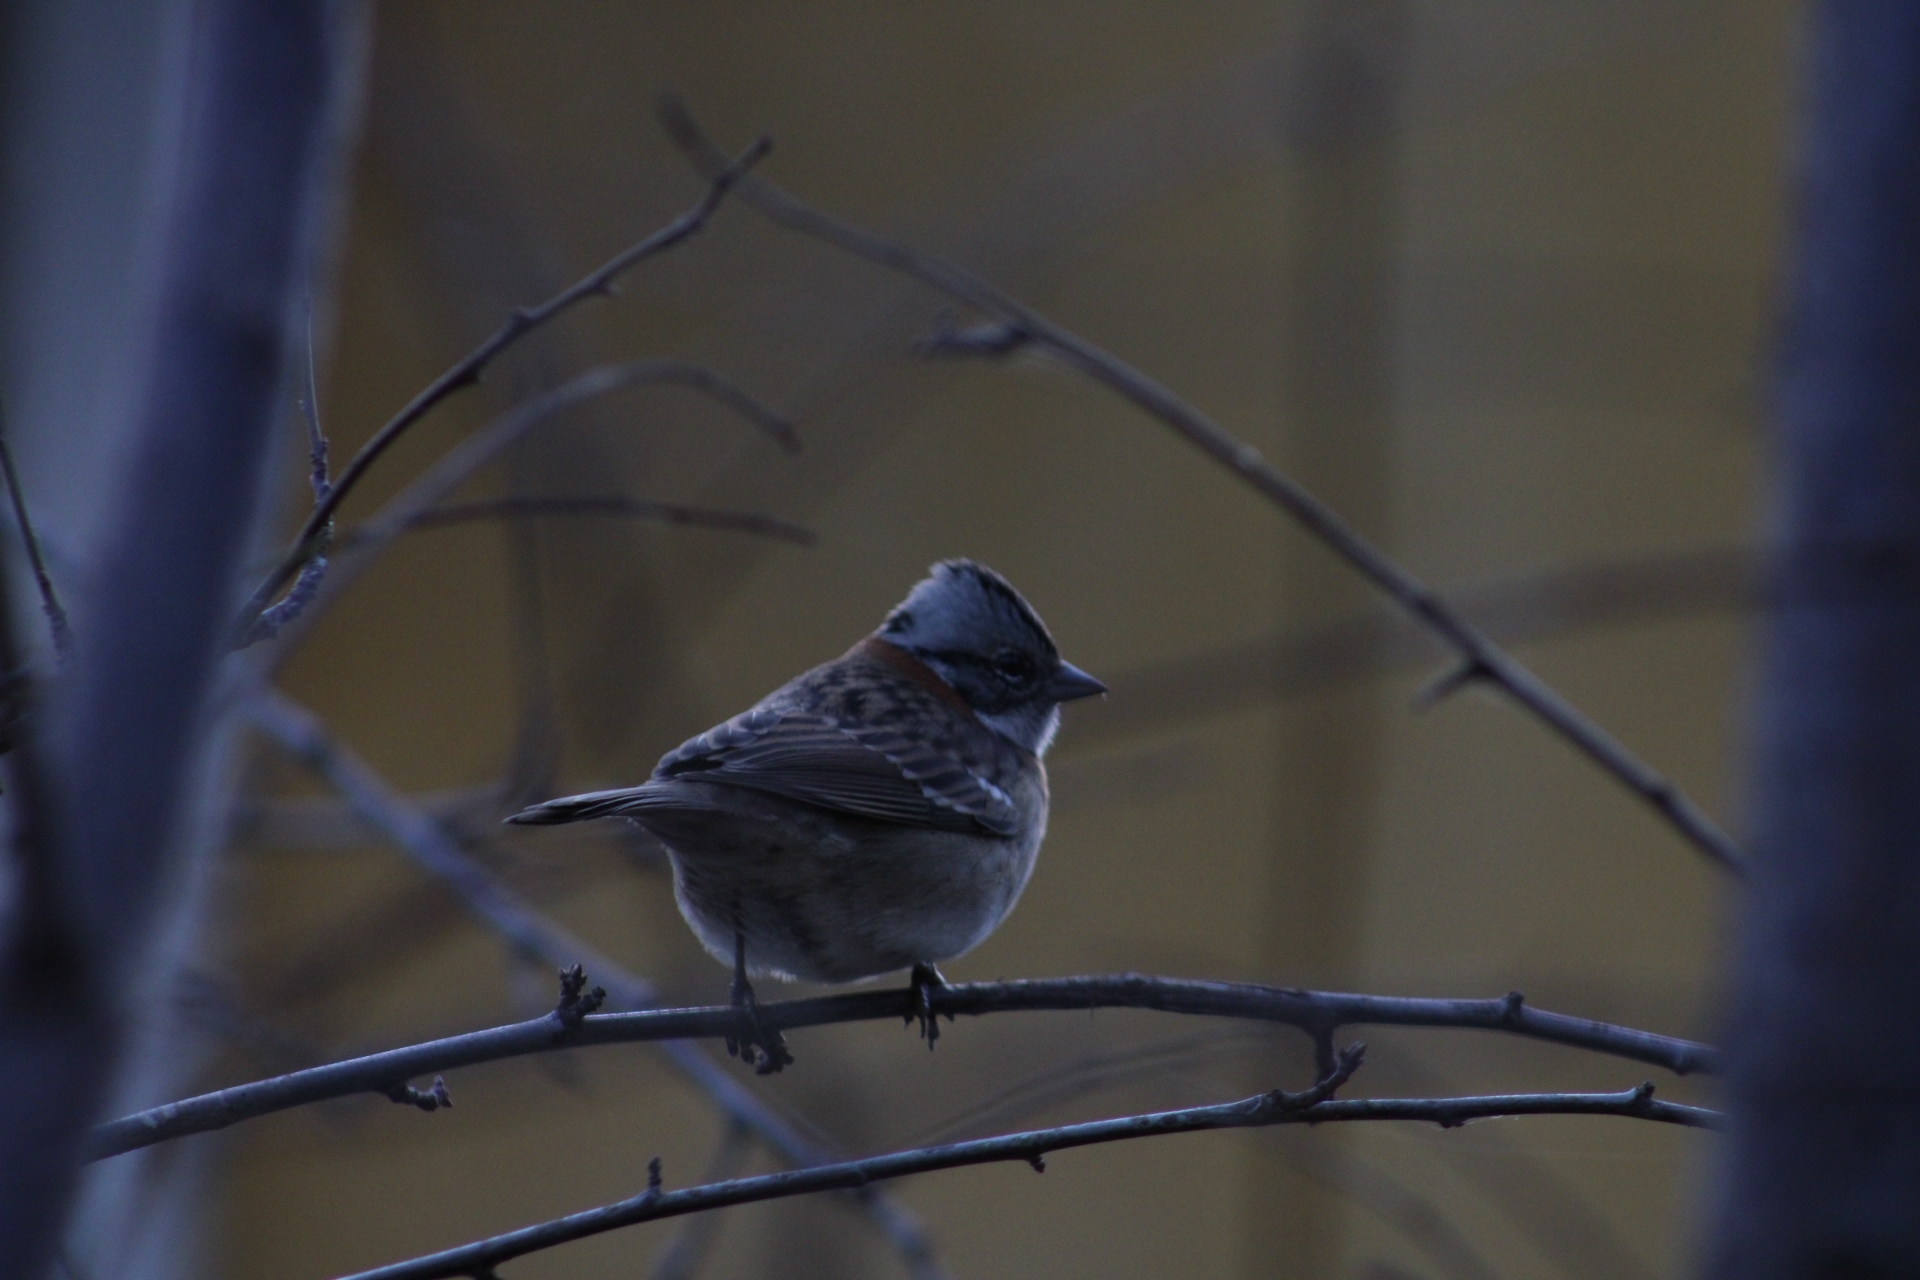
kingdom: Animalia
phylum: Chordata
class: Aves
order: Passeriformes
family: Passerellidae
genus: Zonotrichia
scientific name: Zonotrichia capensis
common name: Rufous-collared sparrow
